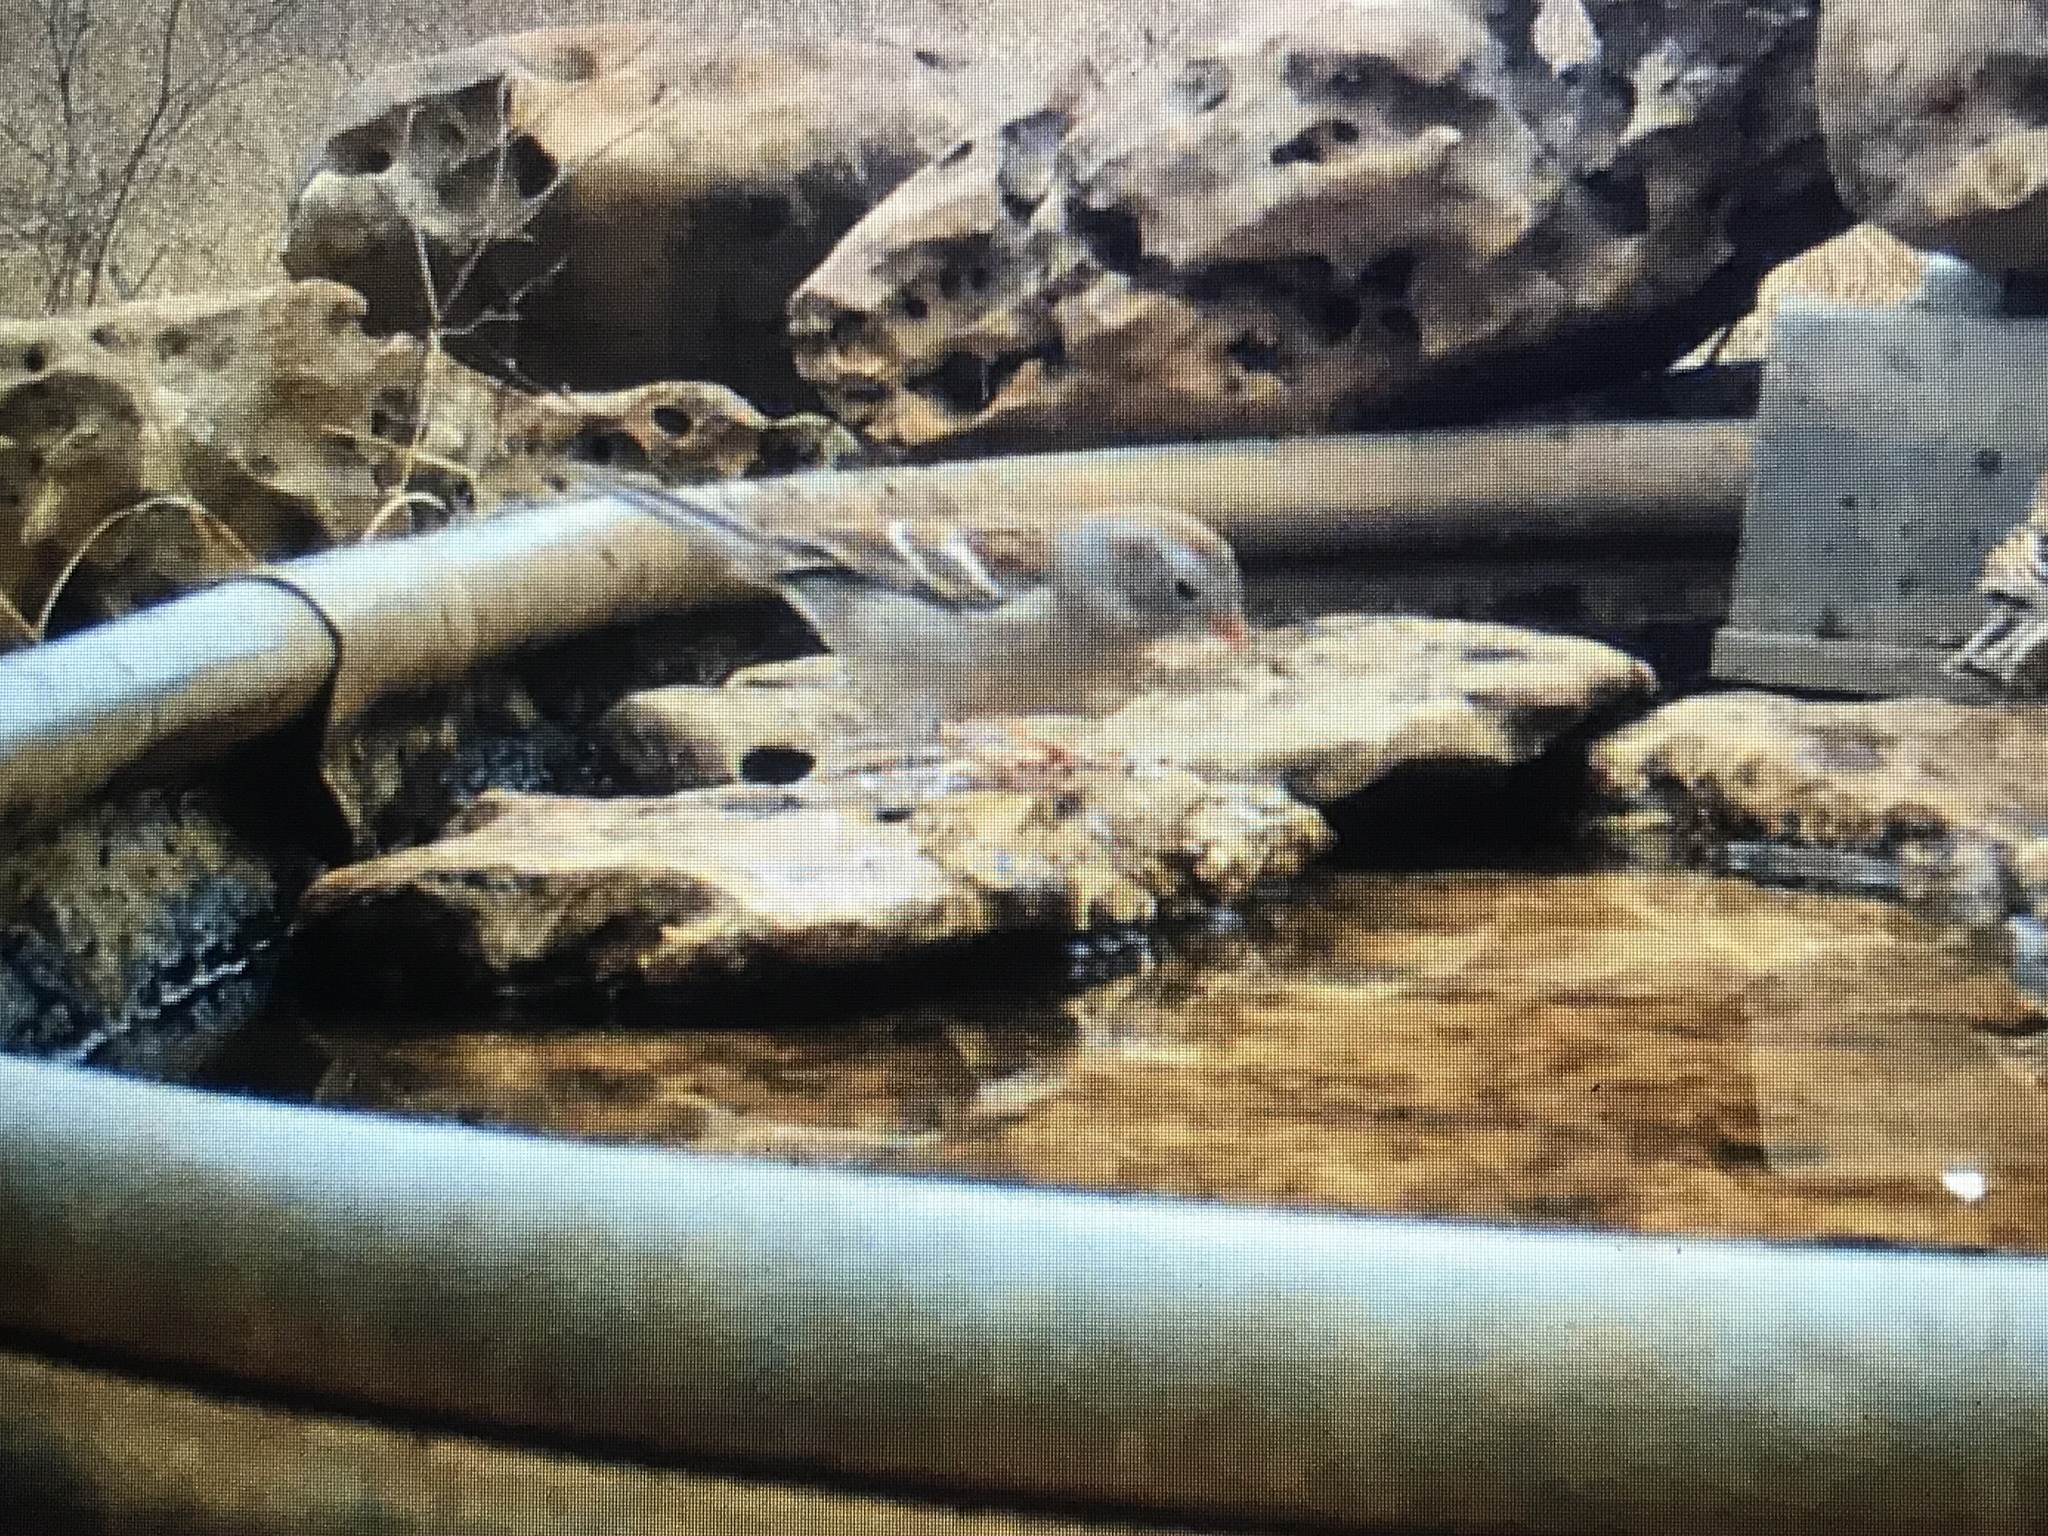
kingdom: Animalia
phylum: Chordata
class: Aves
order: Passeriformes
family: Passerellidae
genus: Spizella
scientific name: Spizella pusilla
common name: Field sparrow
